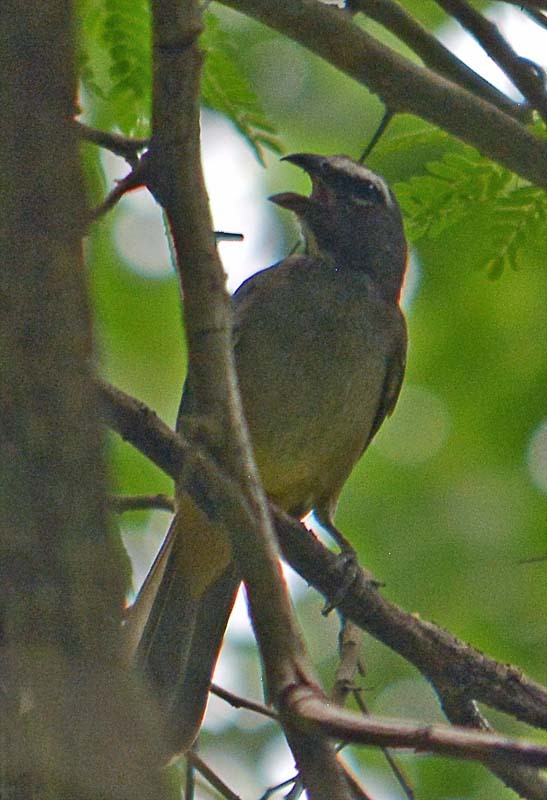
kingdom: Animalia
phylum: Chordata
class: Aves
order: Passeriformes
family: Thraupidae
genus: Saltator
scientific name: Saltator grandis
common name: Cinnamon-bellied saltator
